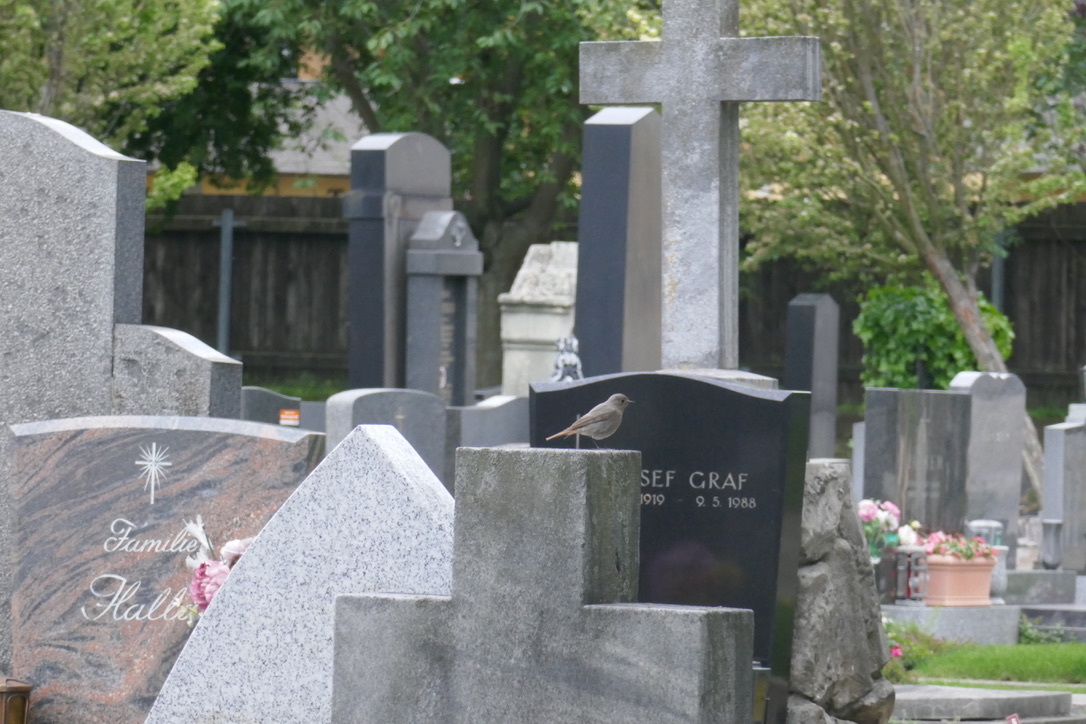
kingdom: Animalia
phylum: Chordata
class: Aves
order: Passeriformes
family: Muscicapidae
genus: Phoenicurus
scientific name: Phoenicurus ochruros
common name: Black redstart
